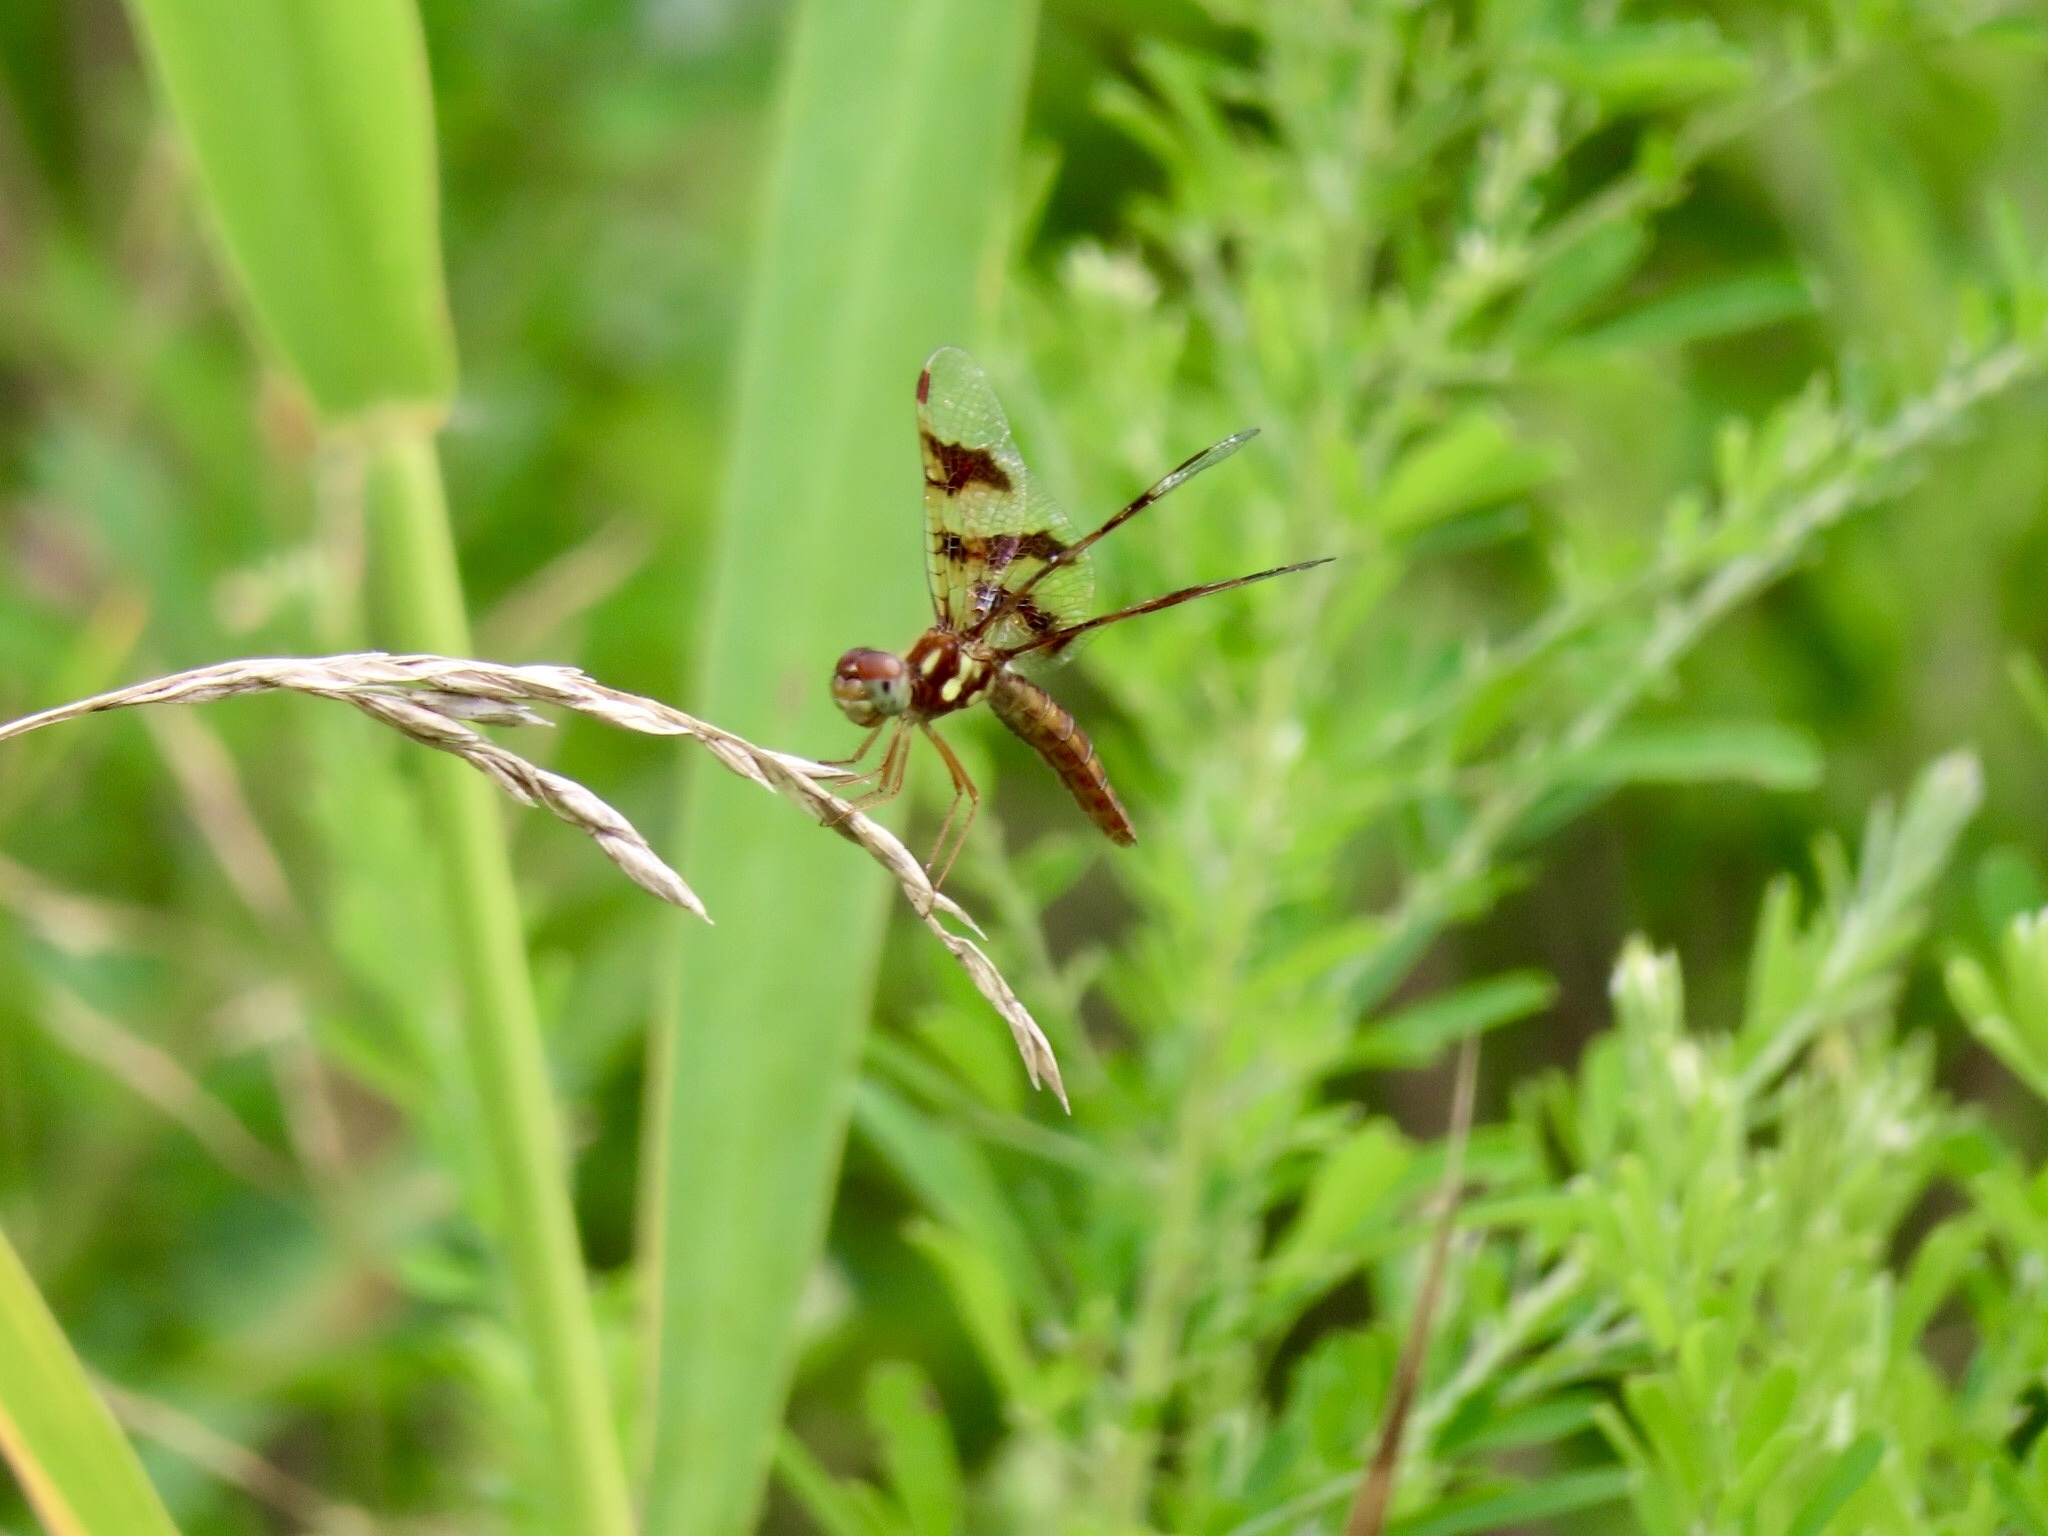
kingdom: Animalia
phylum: Arthropoda
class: Insecta
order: Odonata
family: Libellulidae
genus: Perithemis
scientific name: Perithemis tenera
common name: Eastern amberwing
